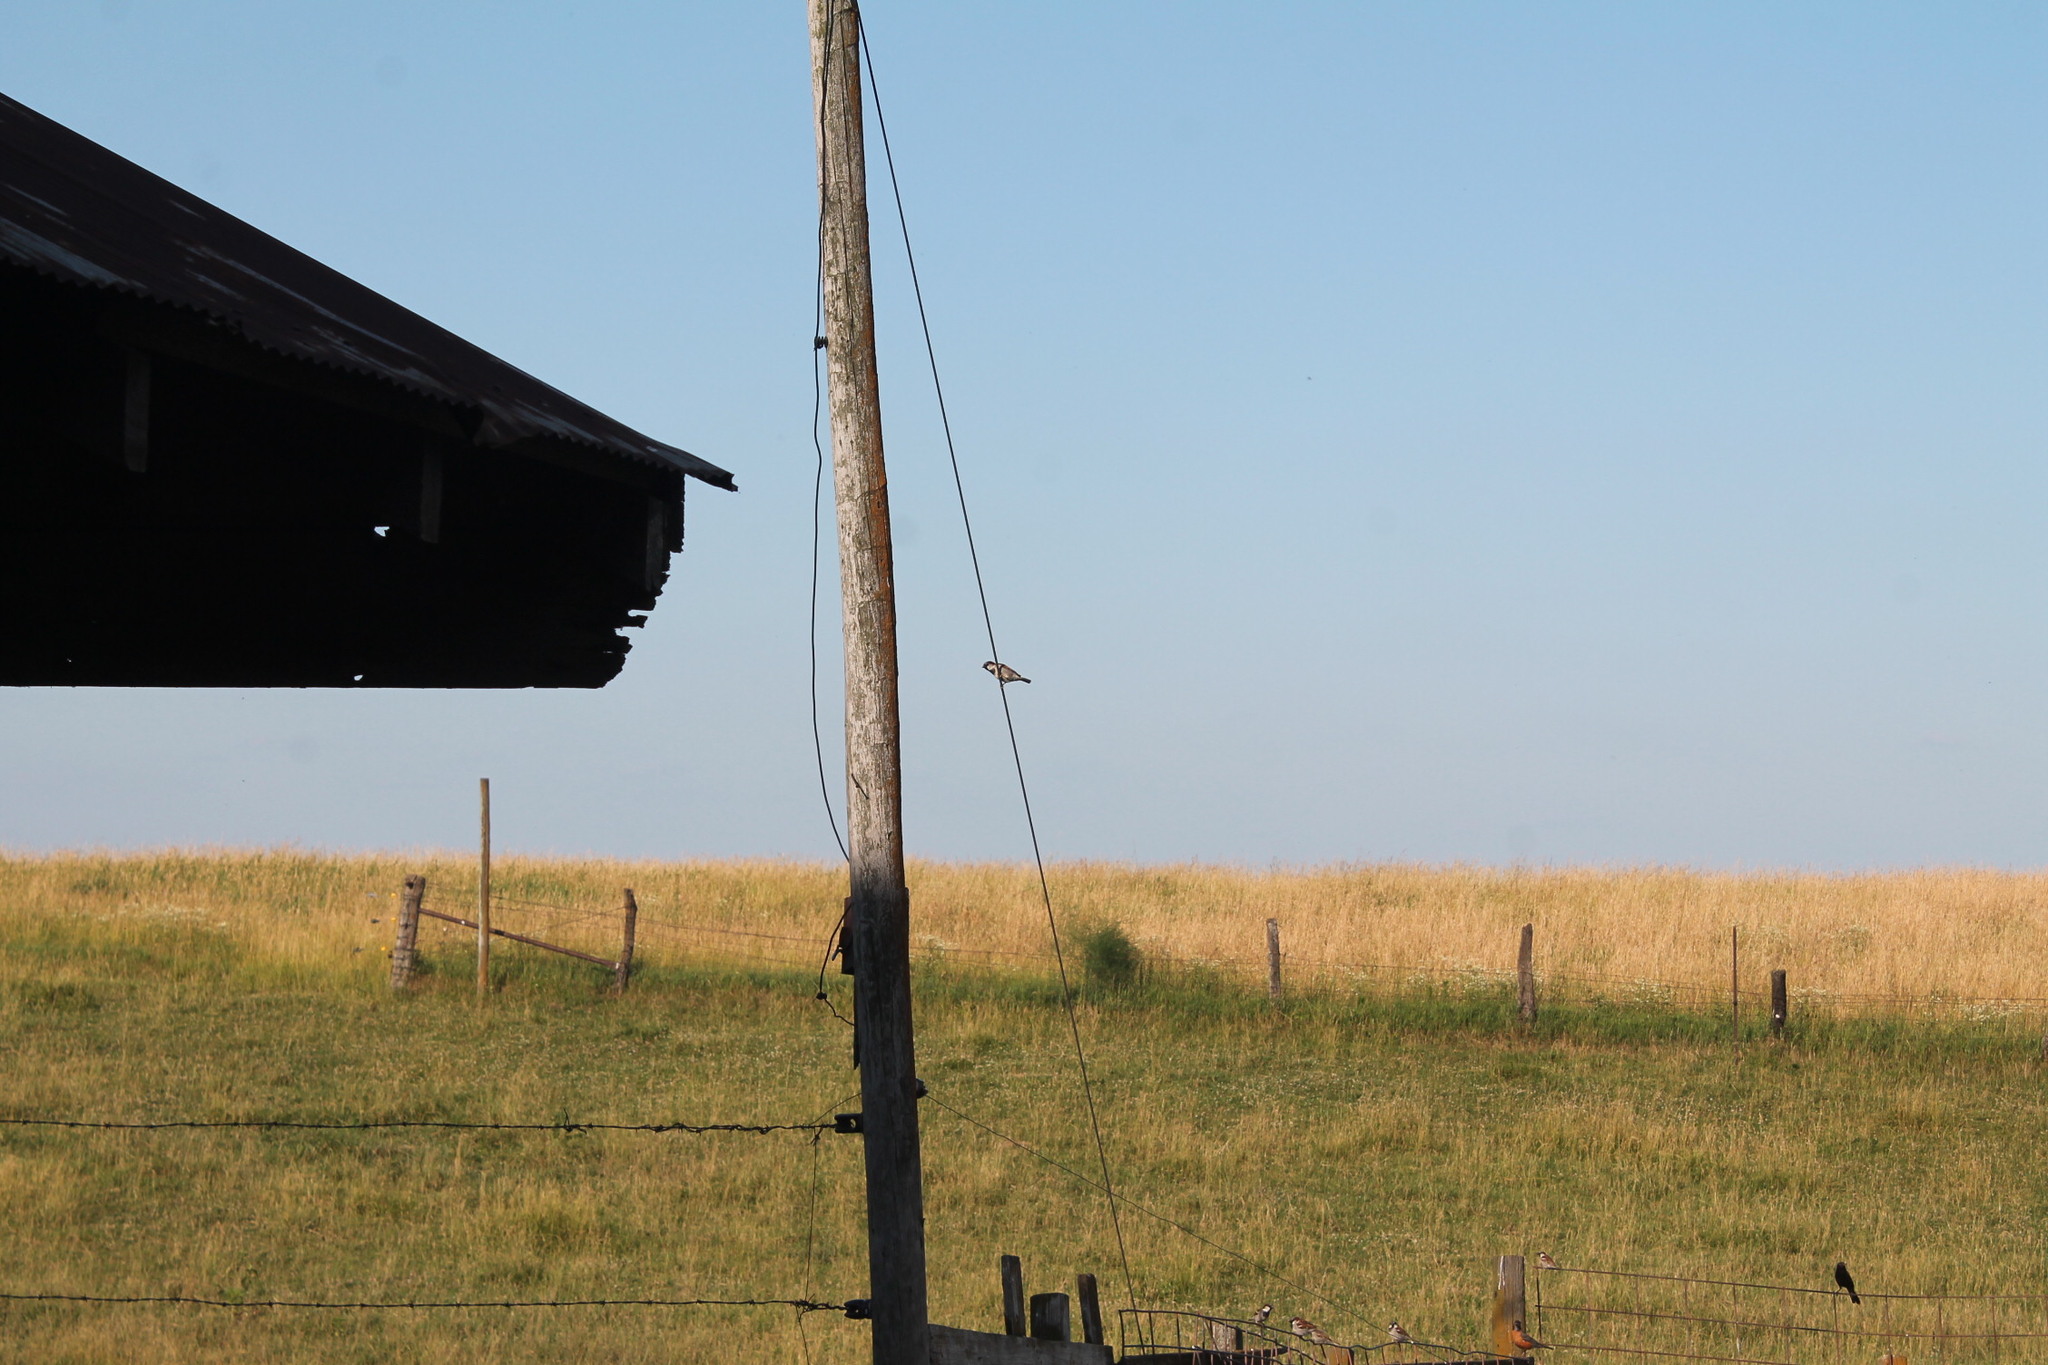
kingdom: Animalia
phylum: Chordata
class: Aves
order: Passeriformes
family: Passeridae
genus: Passer
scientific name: Passer domesticus
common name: House sparrow
